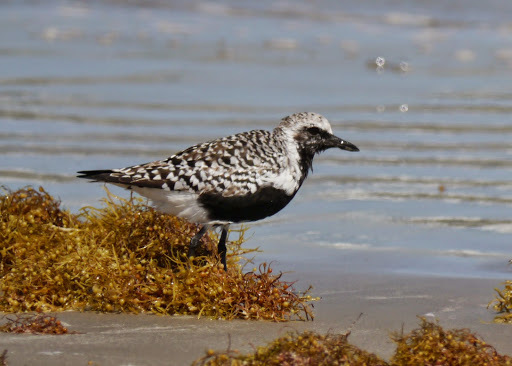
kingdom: Animalia
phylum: Chordata
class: Aves
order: Charadriiformes
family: Charadriidae
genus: Pluvialis
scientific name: Pluvialis squatarola
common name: Grey plover
